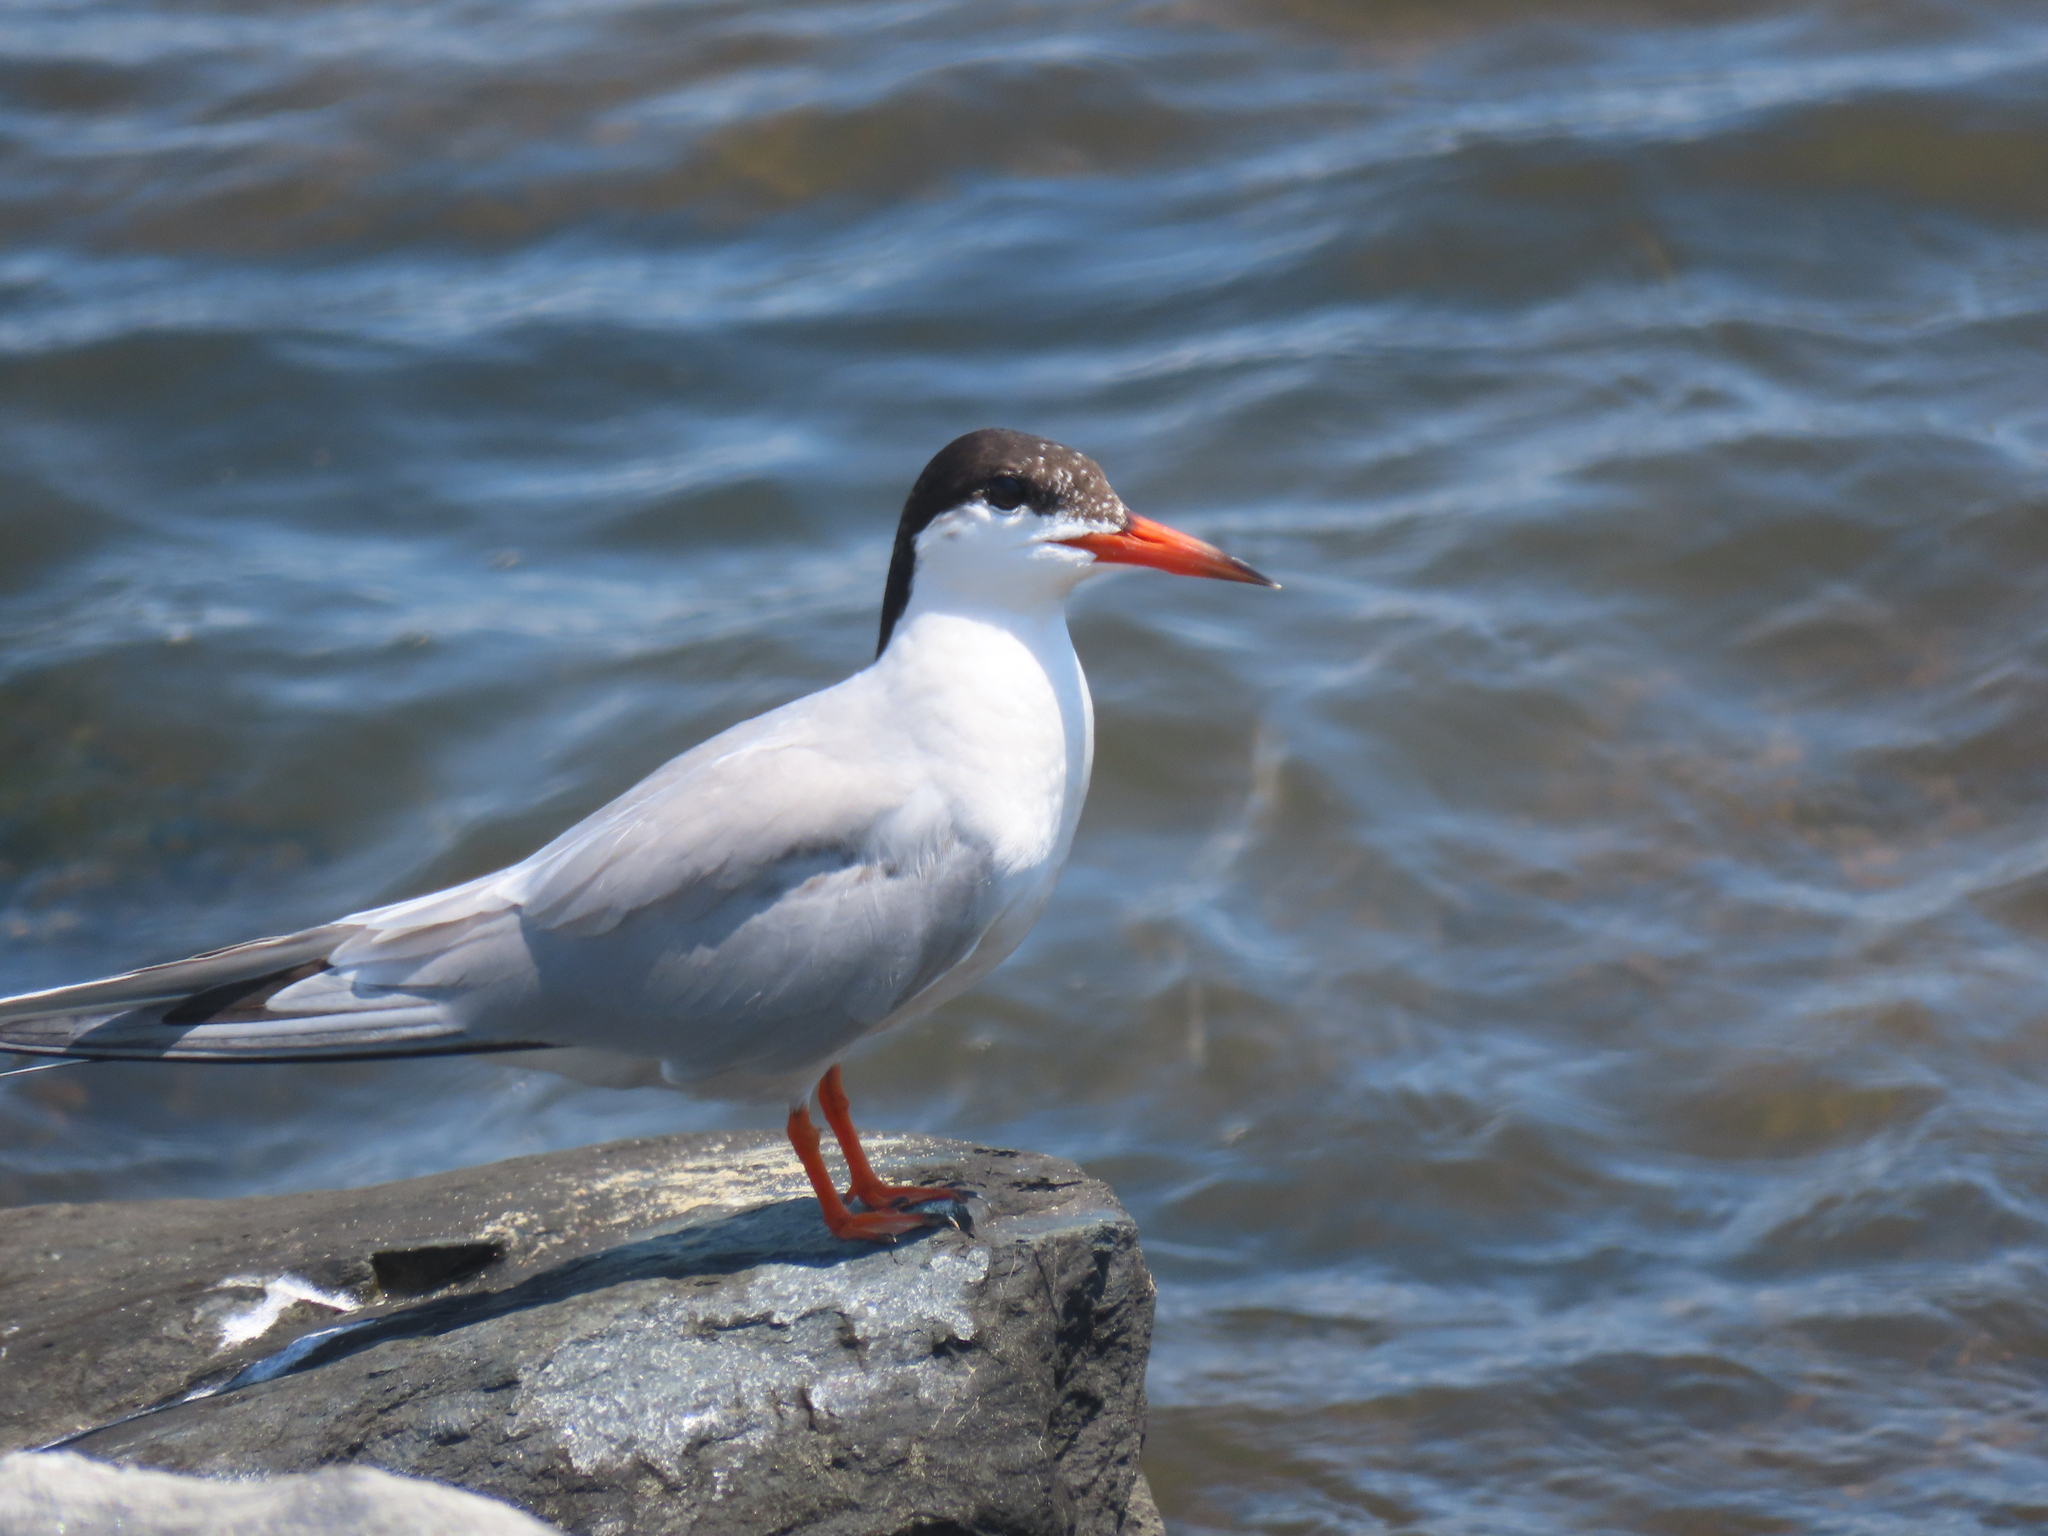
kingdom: Animalia
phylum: Chordata
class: Aves
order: Charadriiformes
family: Laridae
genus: Sterna
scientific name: Sterna forsteri
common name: Forster's tern
